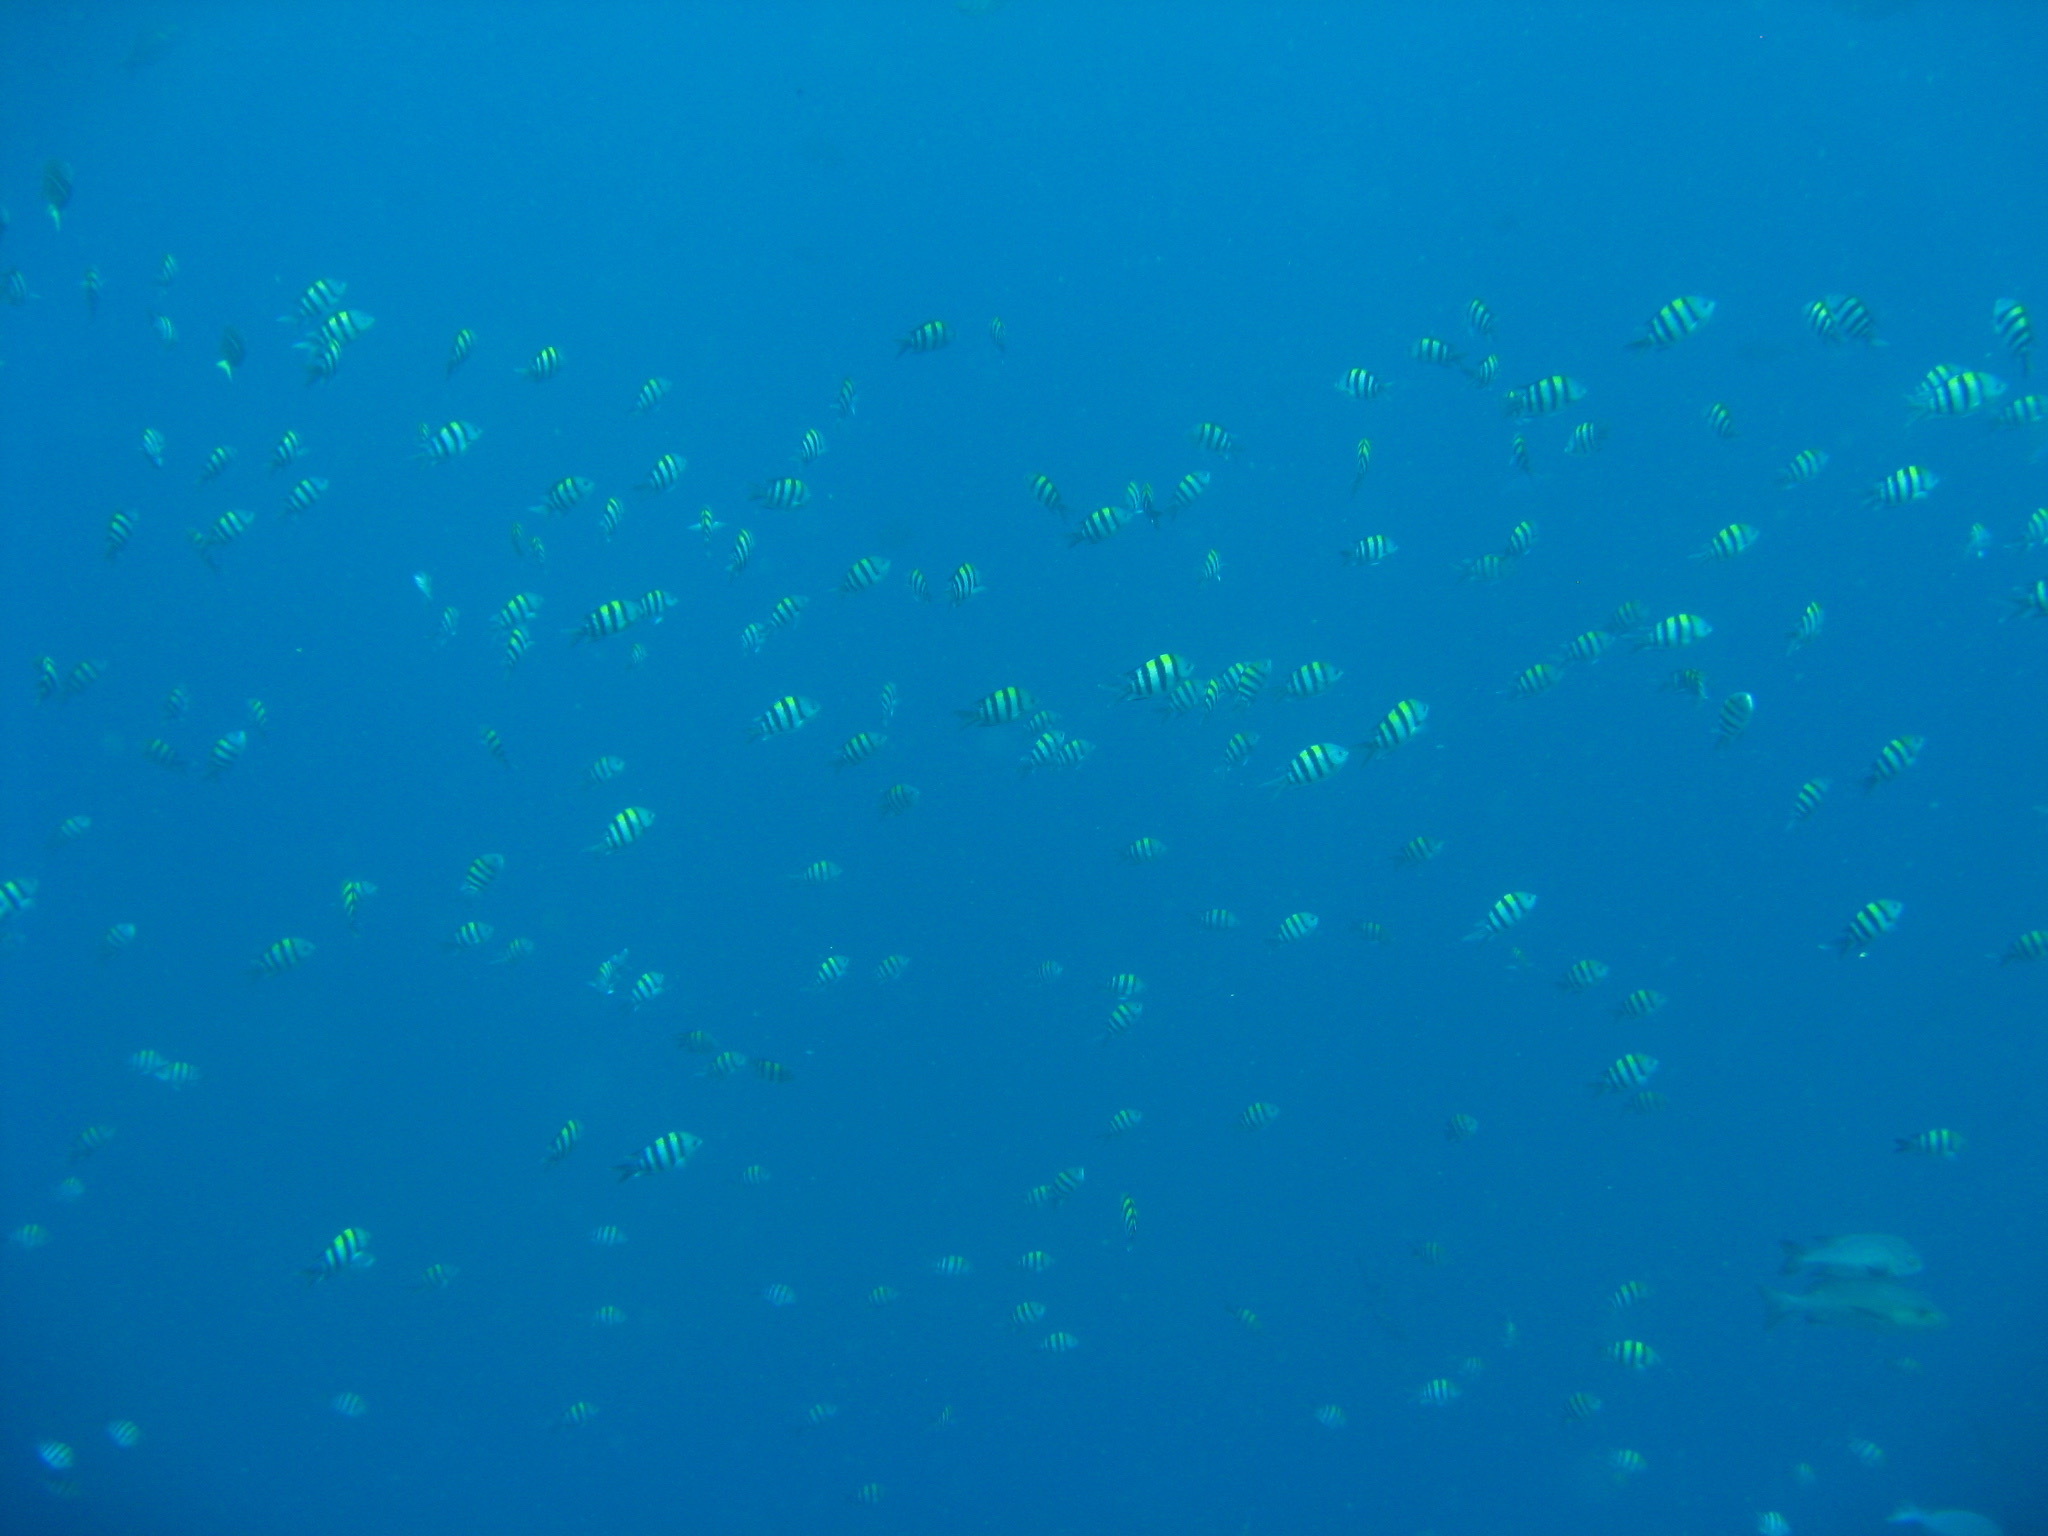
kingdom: Animalia
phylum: Chordata
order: Perciformes
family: Pomacentridae
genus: Abudefduf
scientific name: Abudefduf vaigiensis
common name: Indo-pacific sergeant
